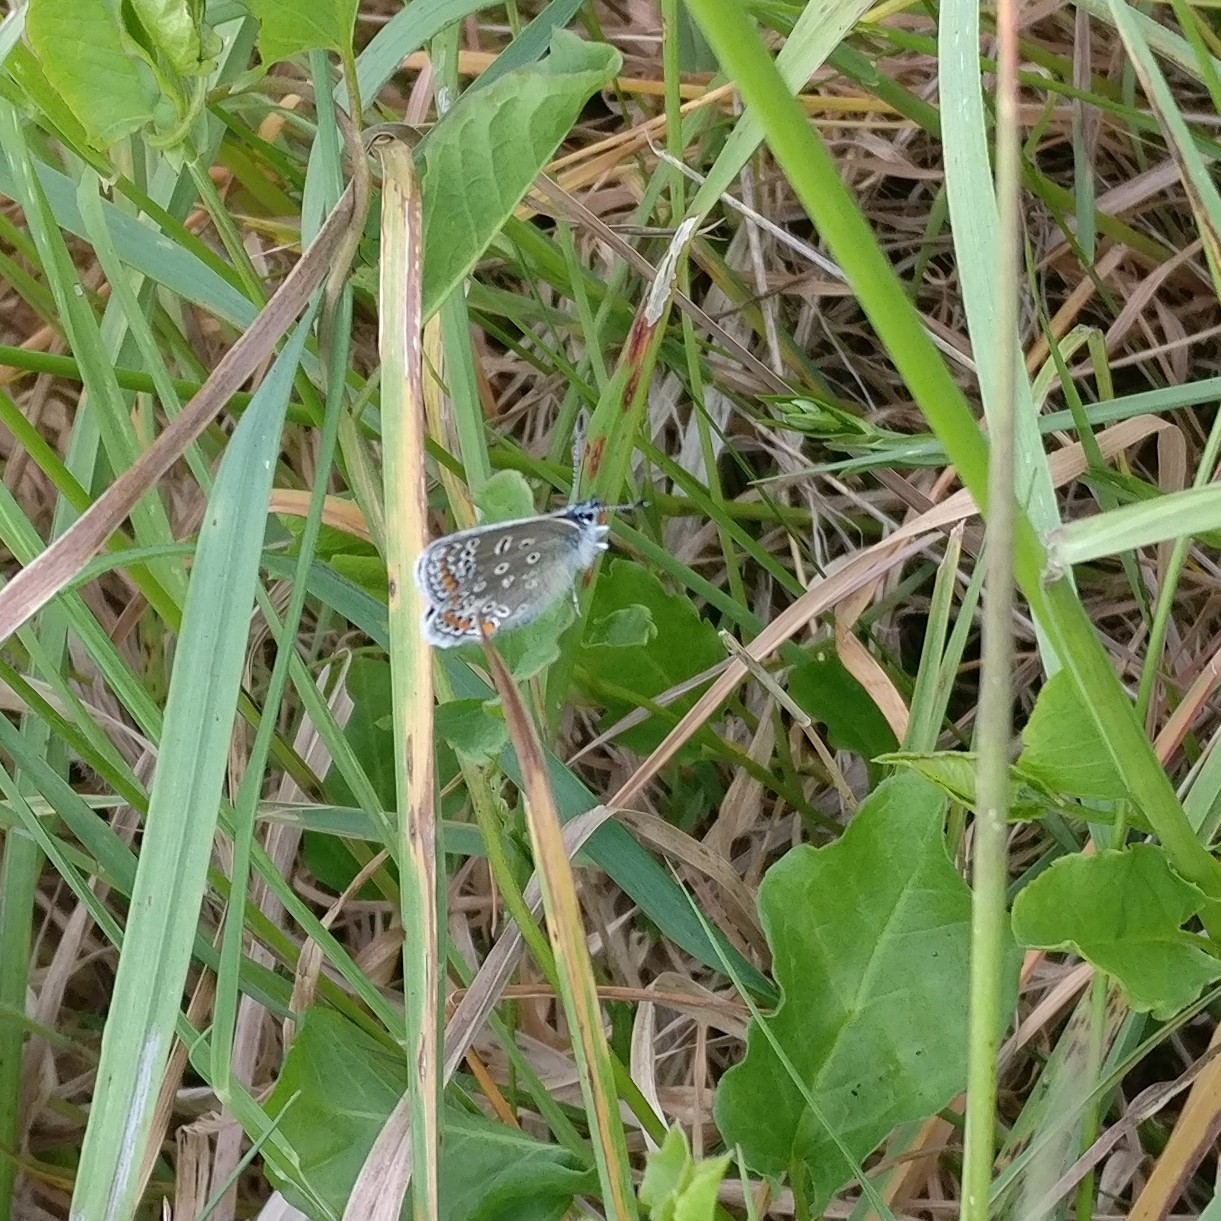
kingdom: Animalia
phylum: Arthropoda
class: Insecta
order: Lepidoptera
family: Lycaenidae
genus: Polyommatus
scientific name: Polyommatus icarus
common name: Common blue
